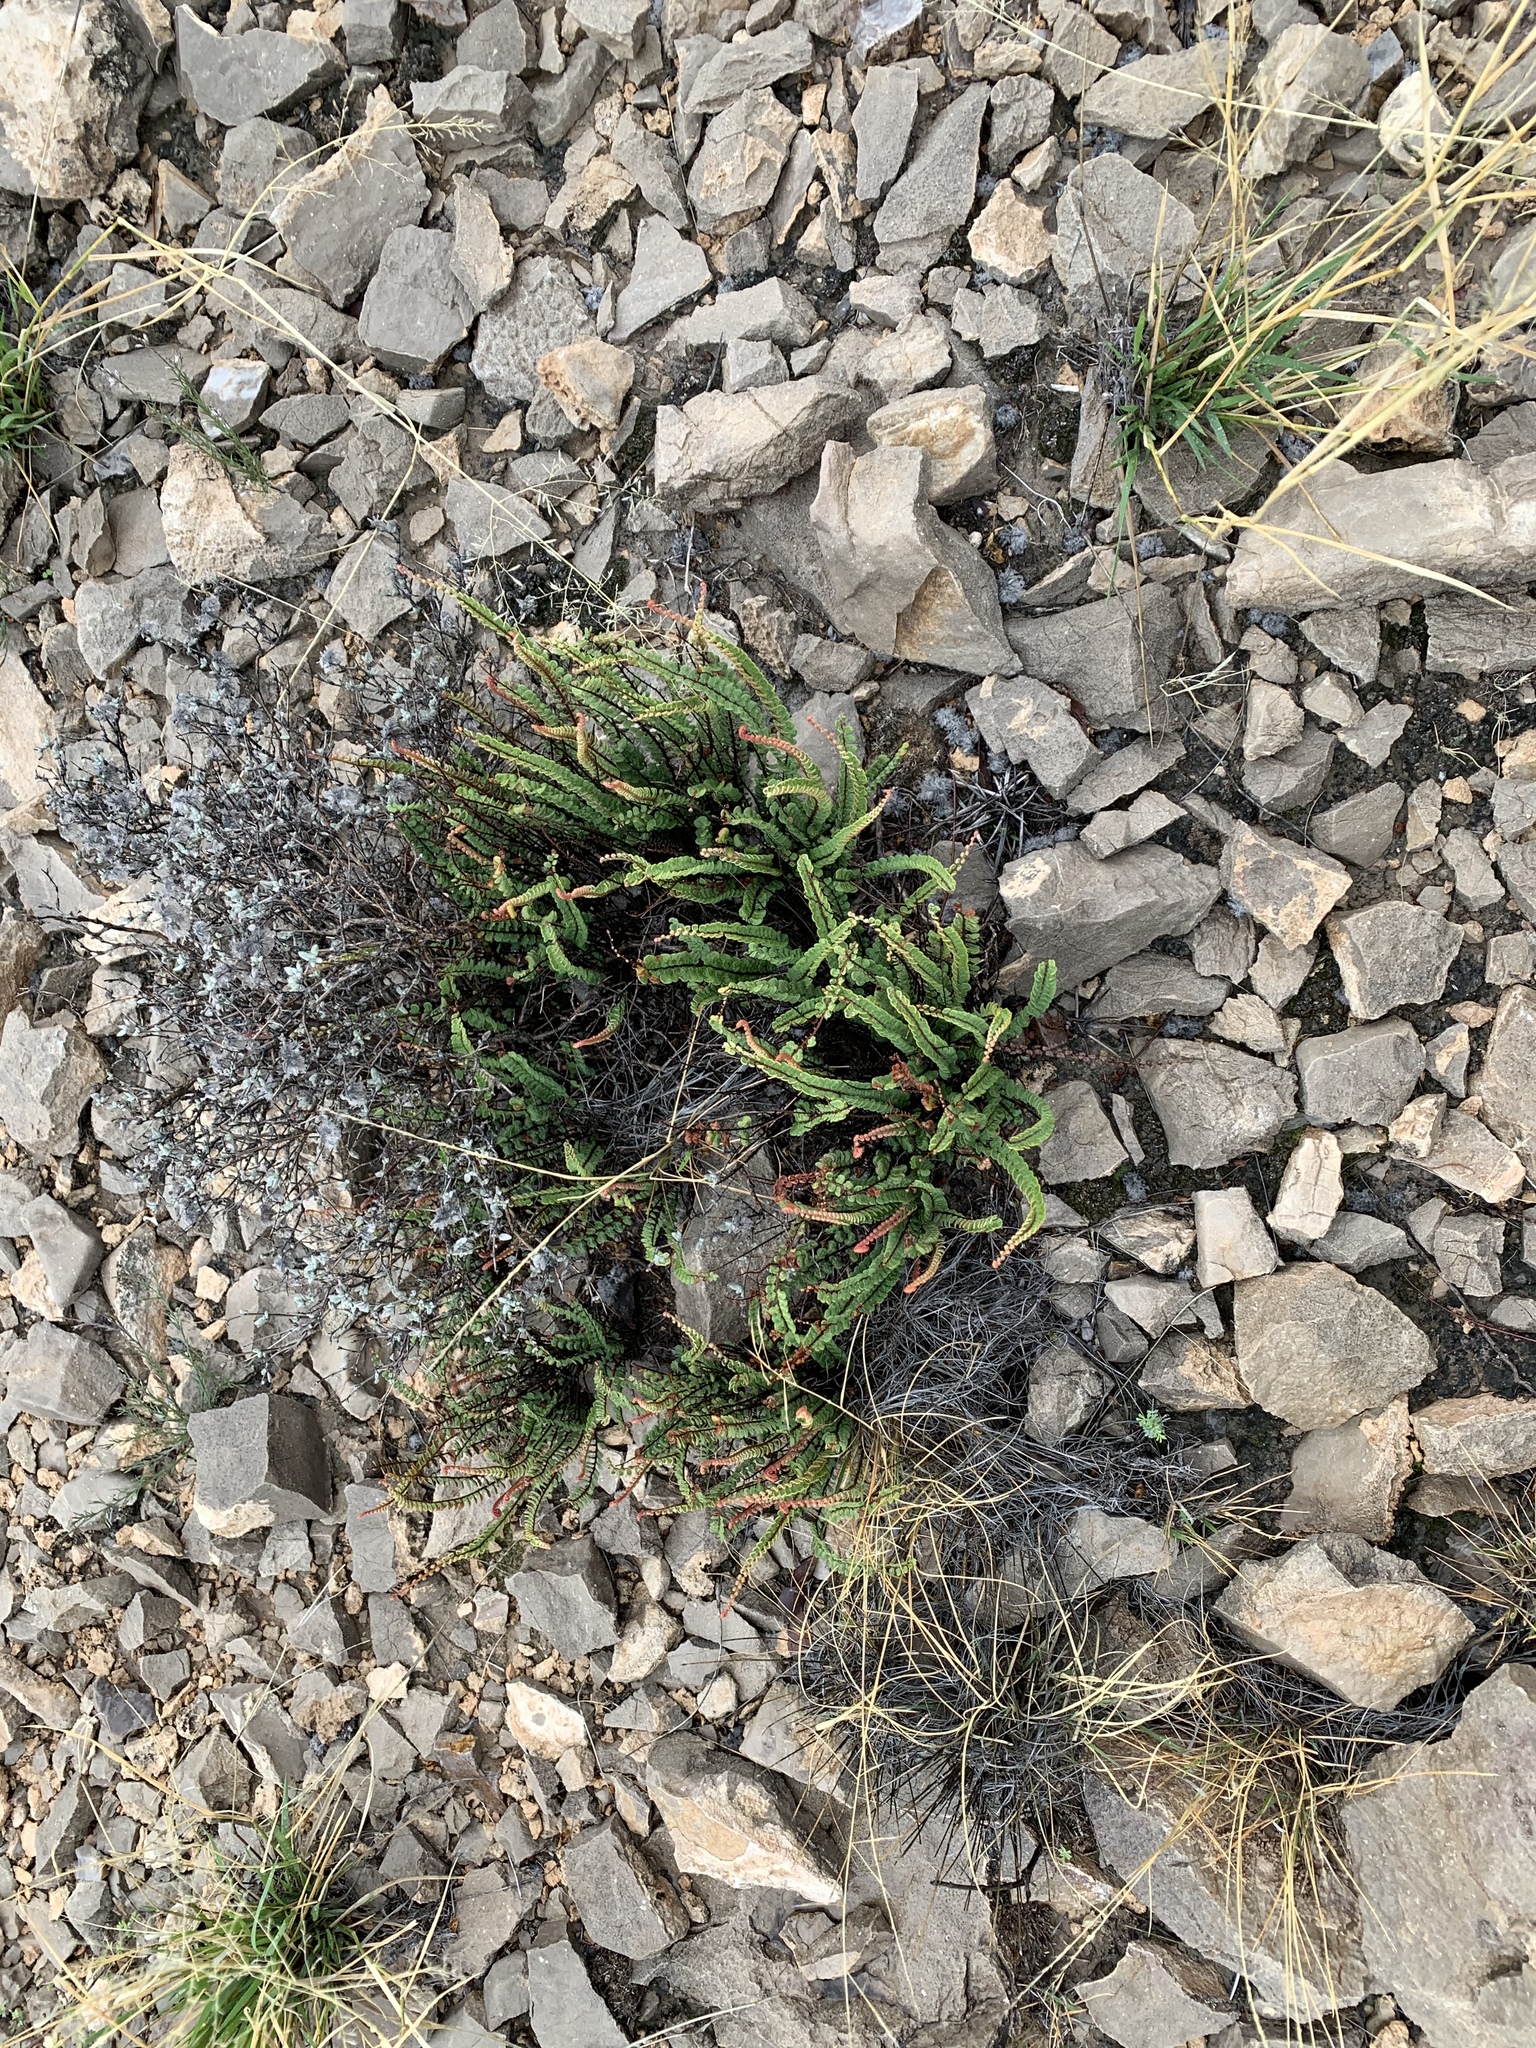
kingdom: Plantae
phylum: Tracheophyta
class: Polypodiopsida
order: Polypodiales
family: Pteridaceae
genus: Astrolepis
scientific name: Astrolepis cochisensis
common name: Scaly cloak fern
